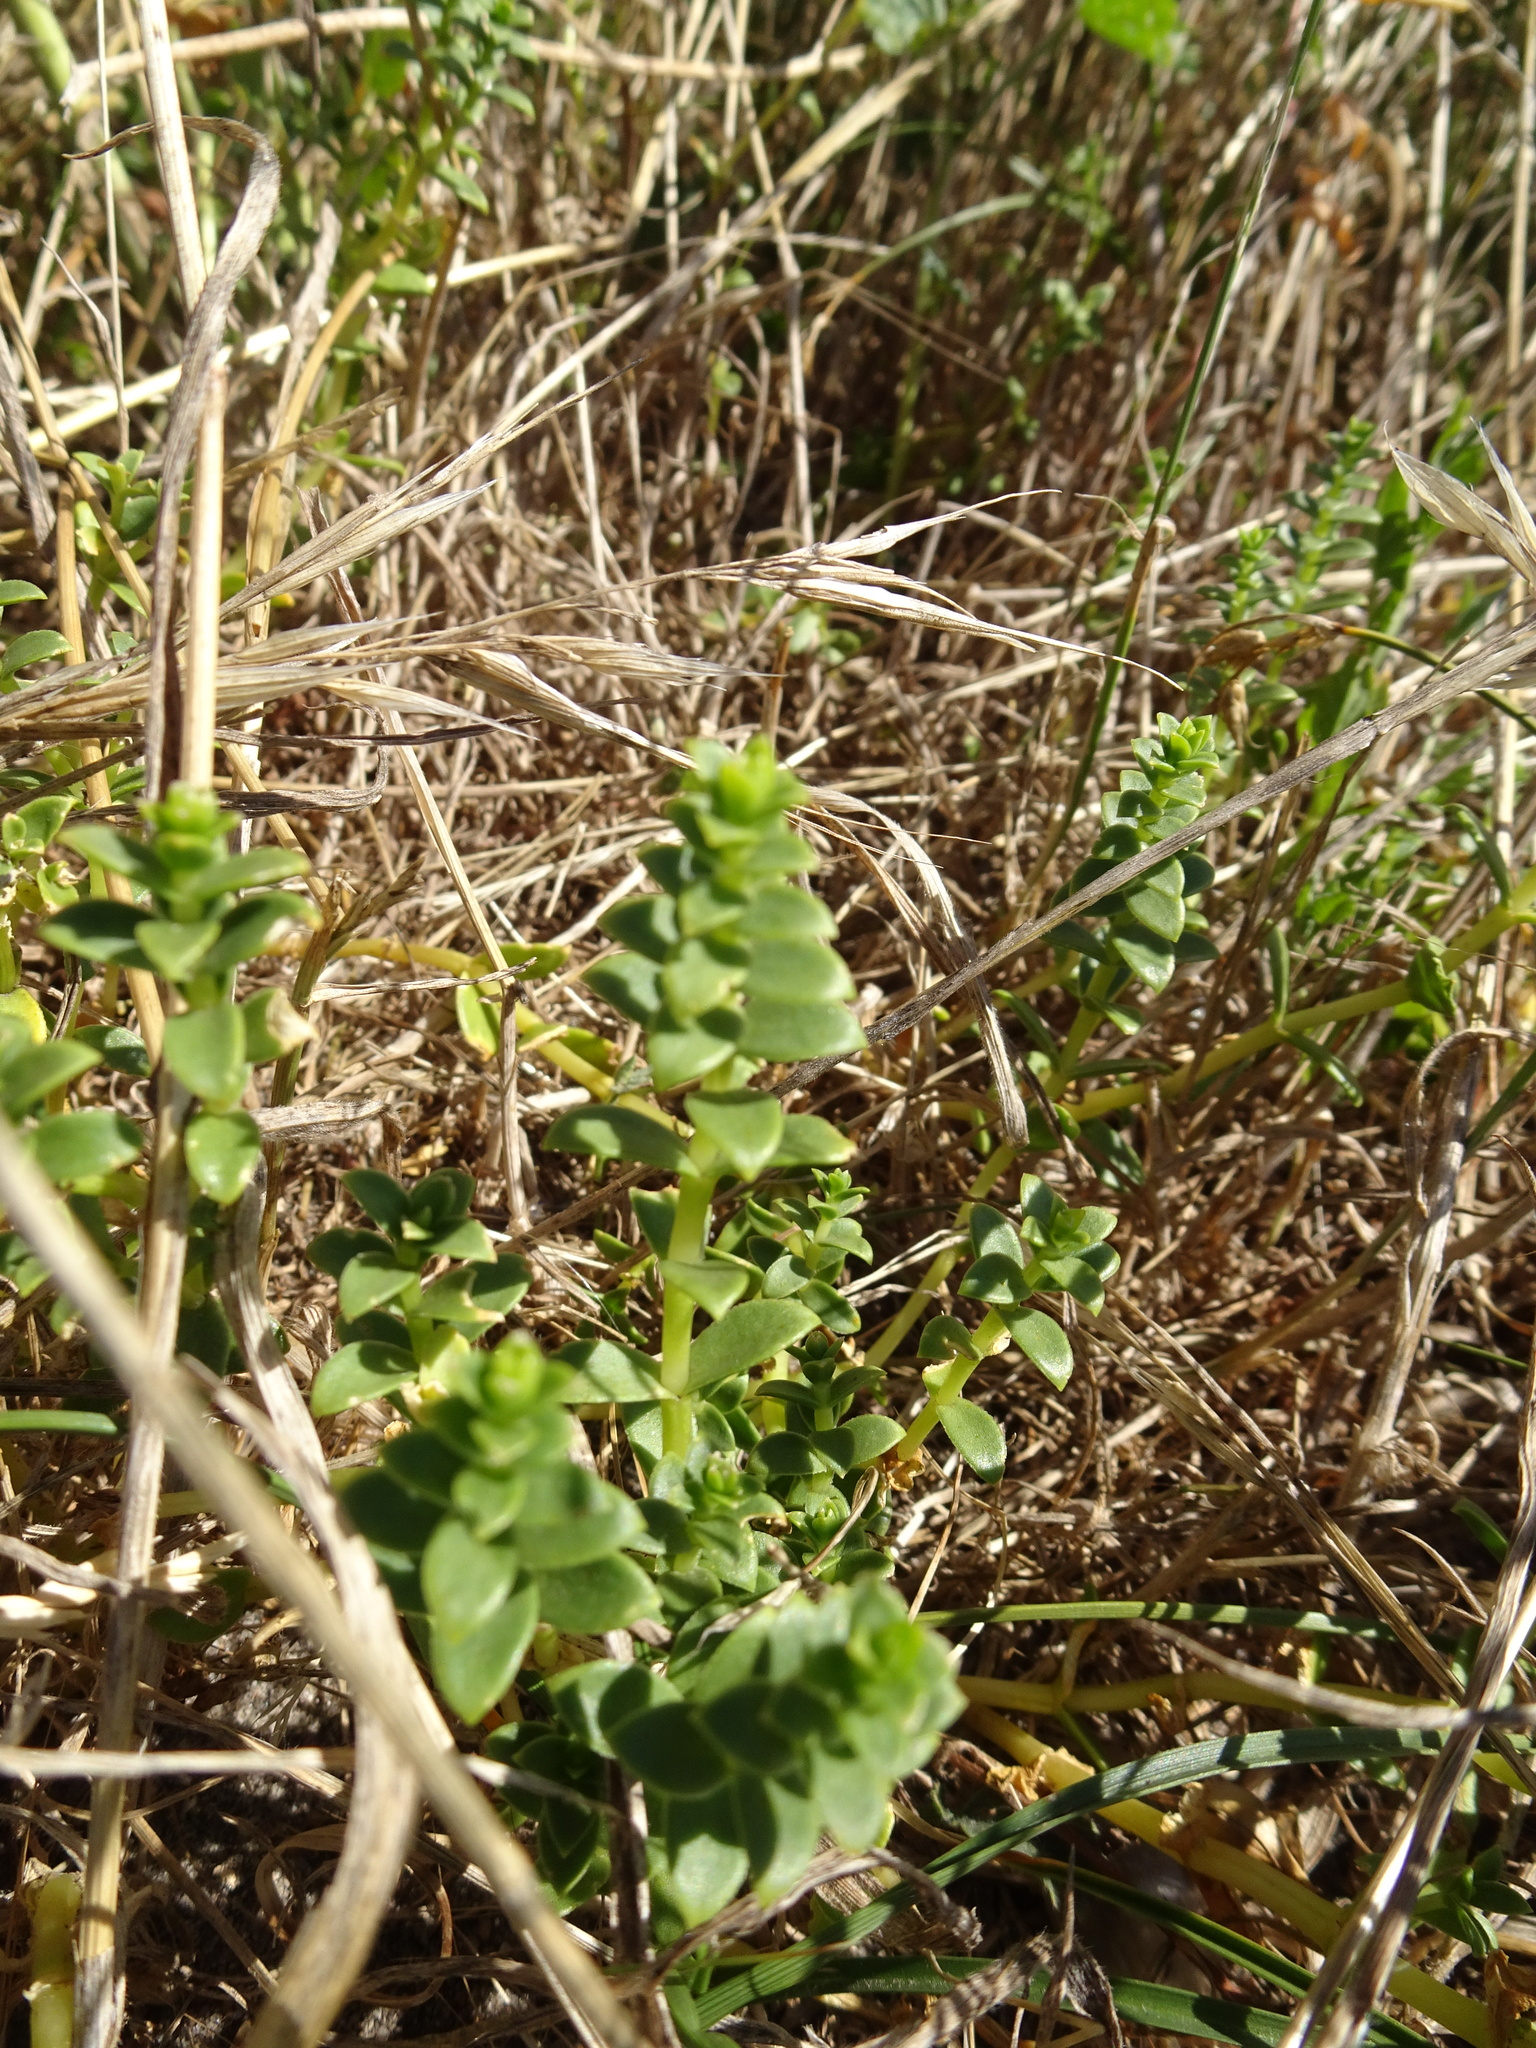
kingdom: Plantae
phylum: Tracheophyta
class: Magnoliopsida
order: Caryophyllales
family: Caryophyllaceae
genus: Honckenya
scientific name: Honckenya peploides
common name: Sea sandwort
